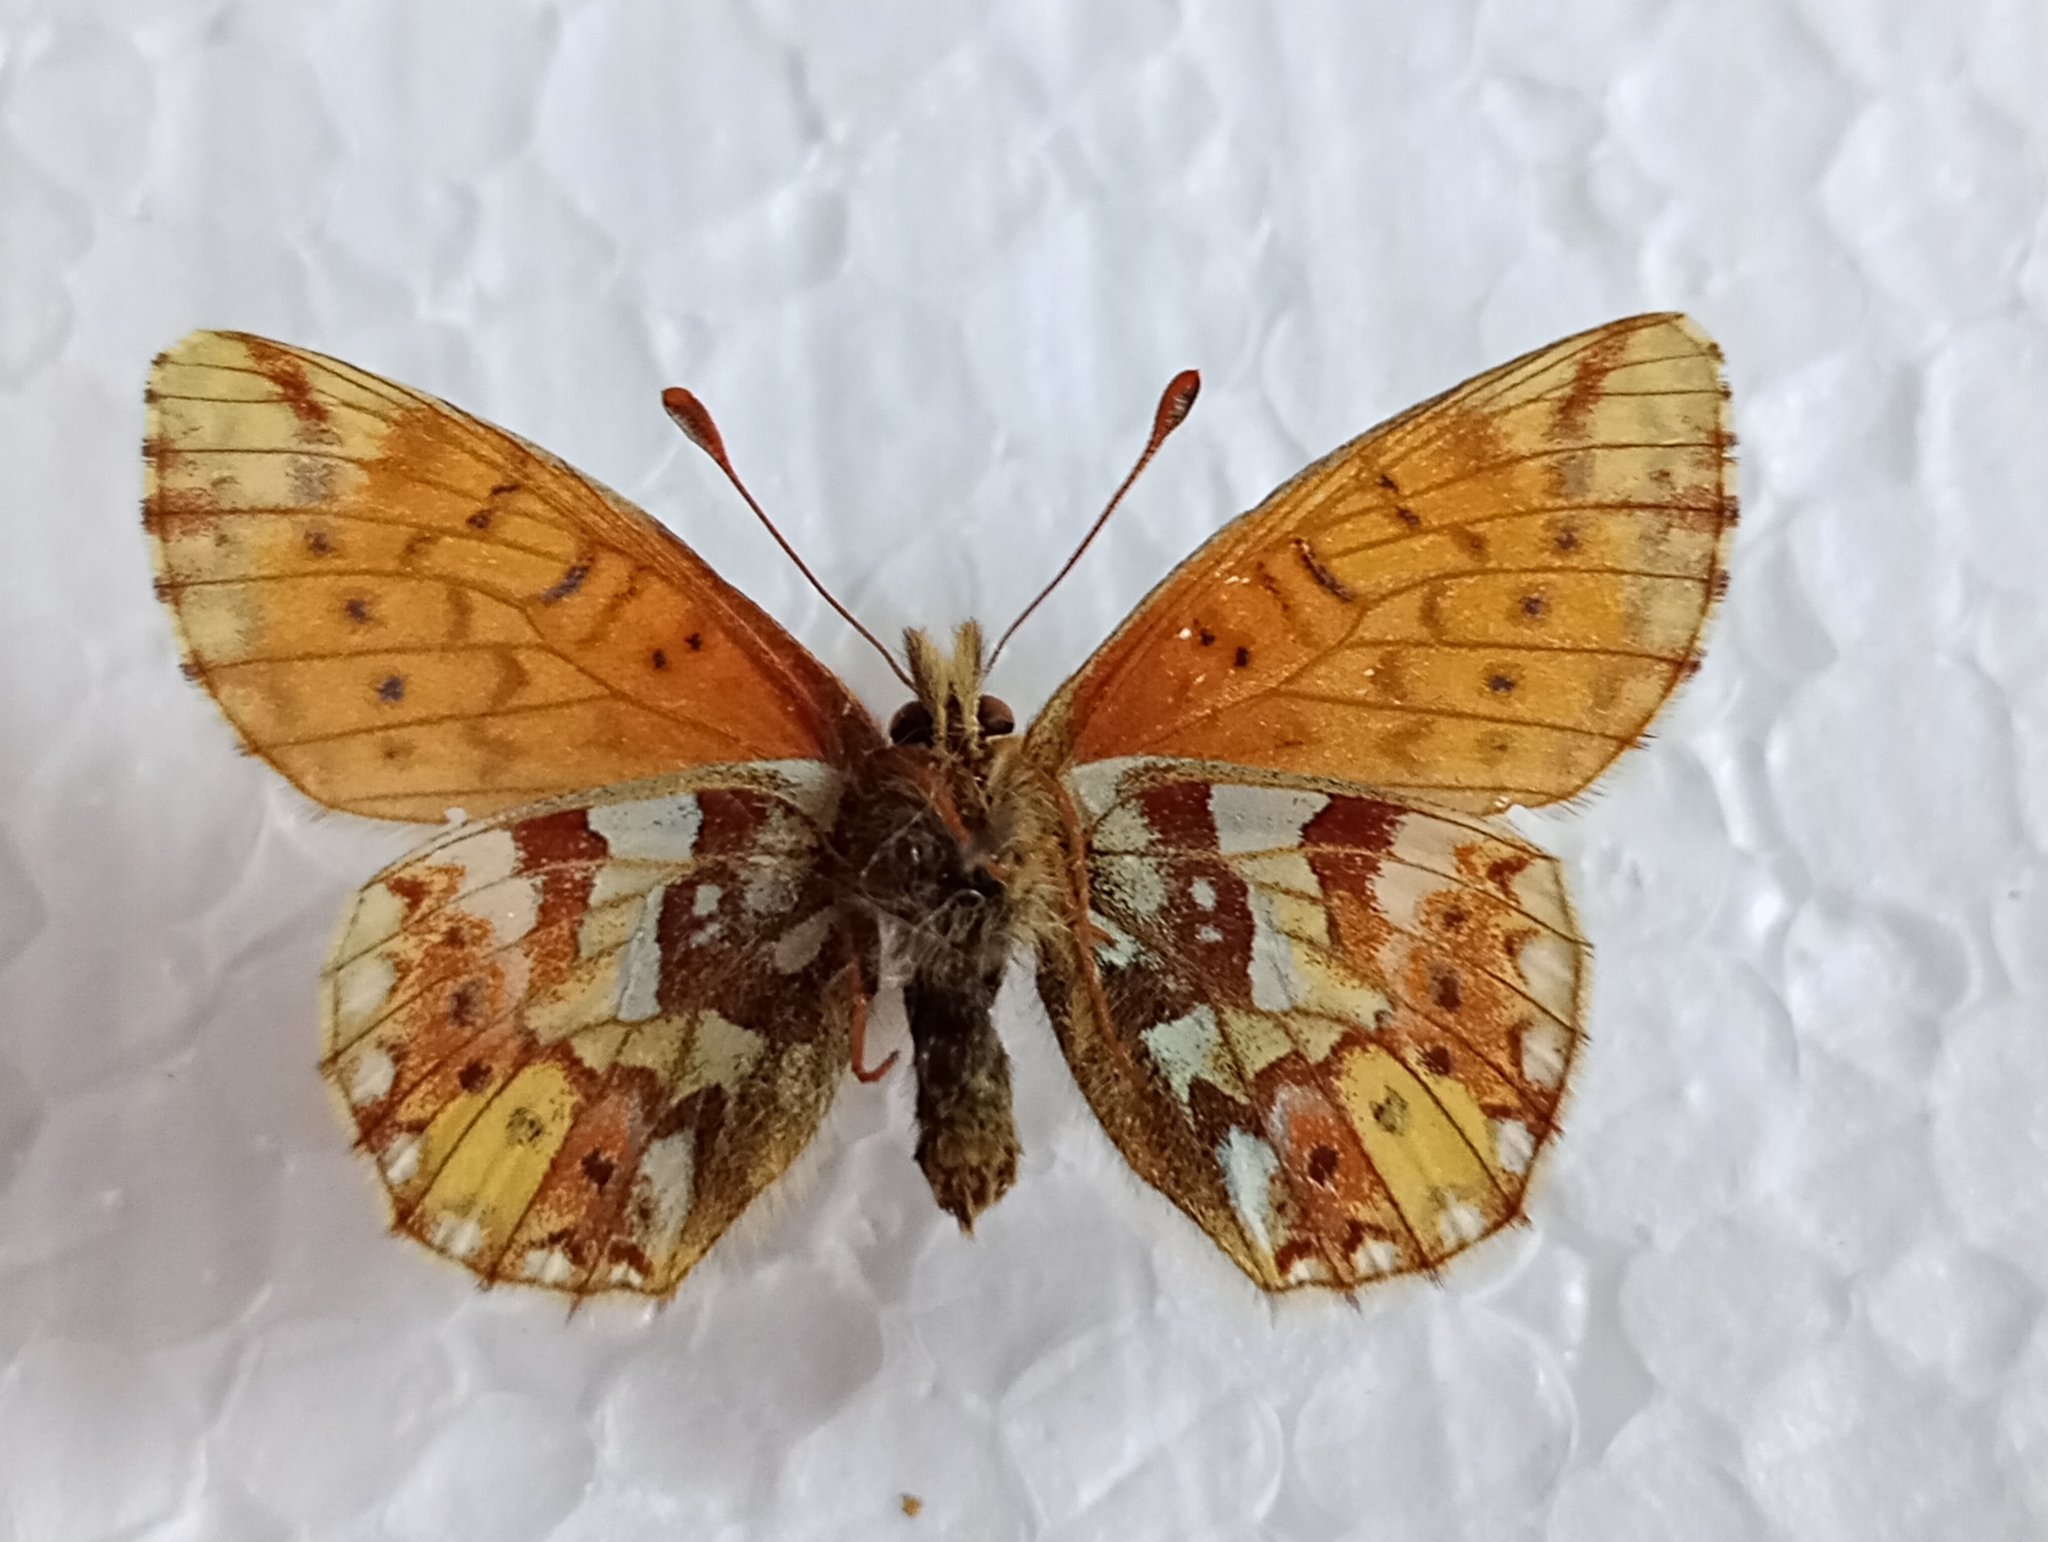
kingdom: Animalia
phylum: Arthropoda
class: Insecta
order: Lepidoptera
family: Nymphalidae
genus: Boloria
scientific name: Boloria napaea
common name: Mountain fritillary
